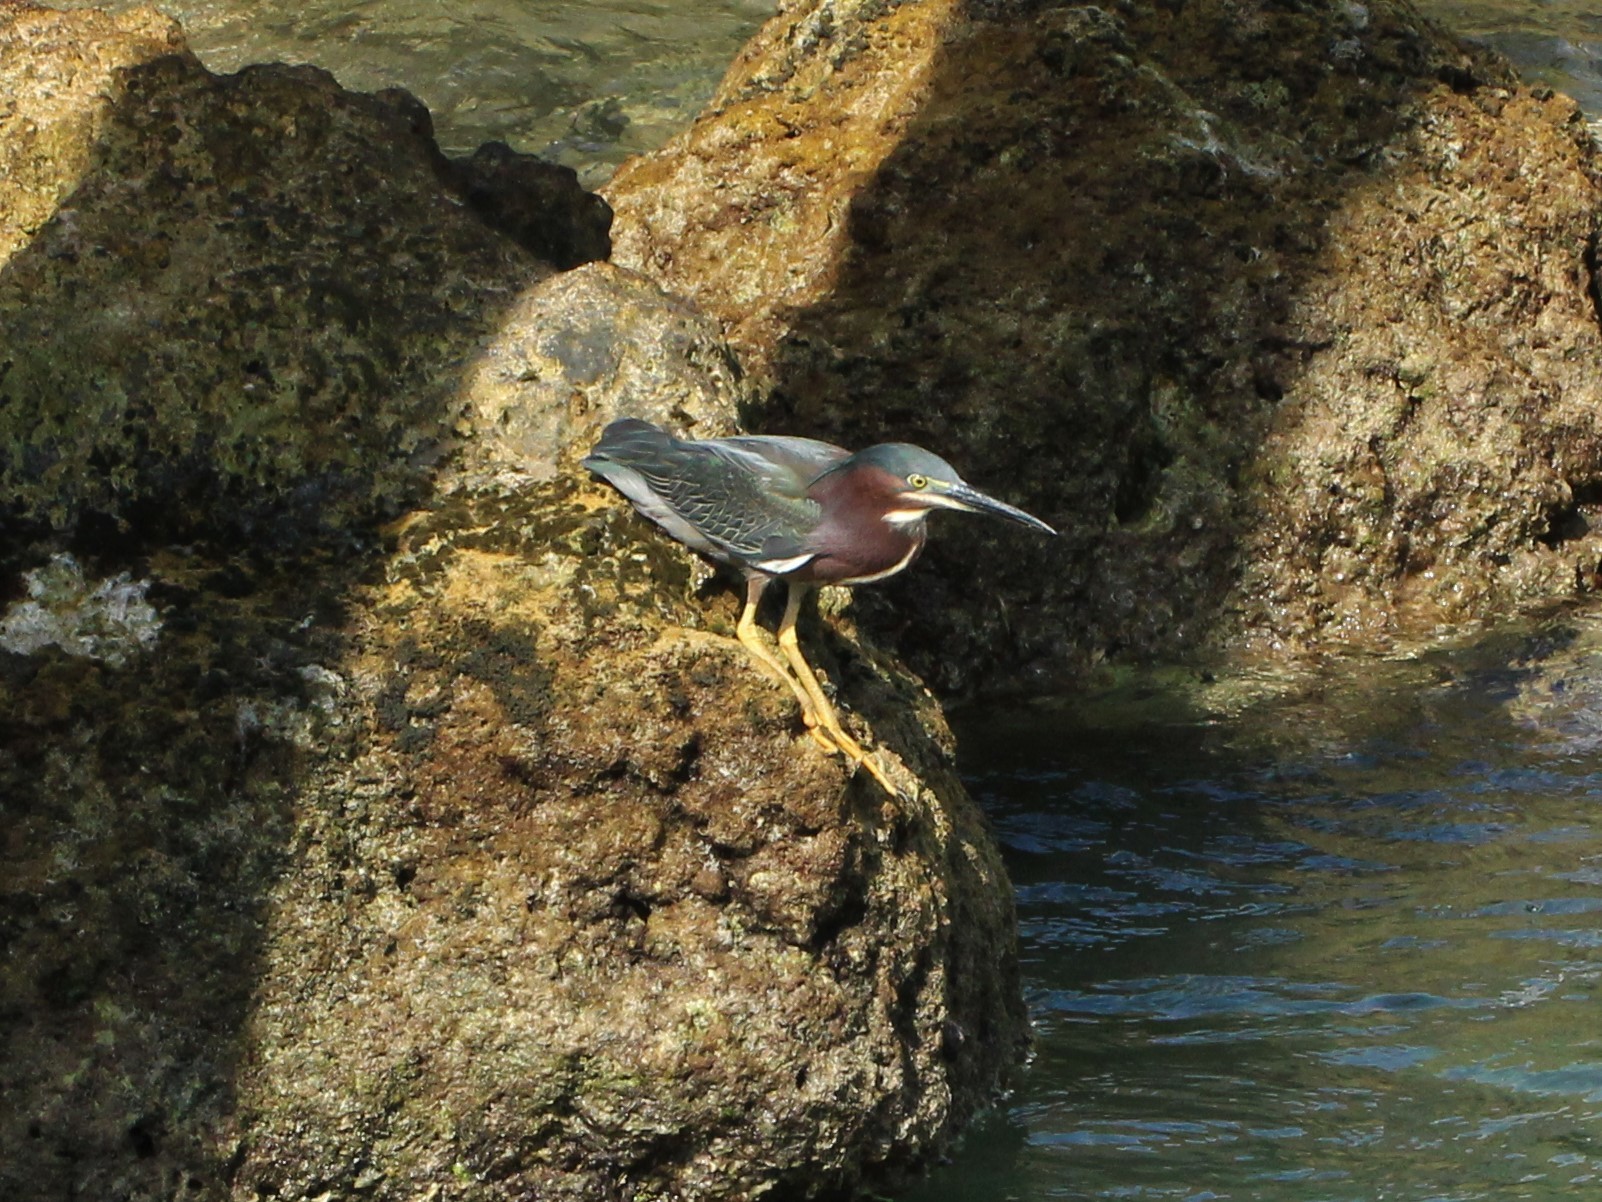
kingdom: Animalia
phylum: Chordata
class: Aves
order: Pelecaniformes
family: Ardeidae
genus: Butorides
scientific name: Butorides virescens
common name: Green heron
